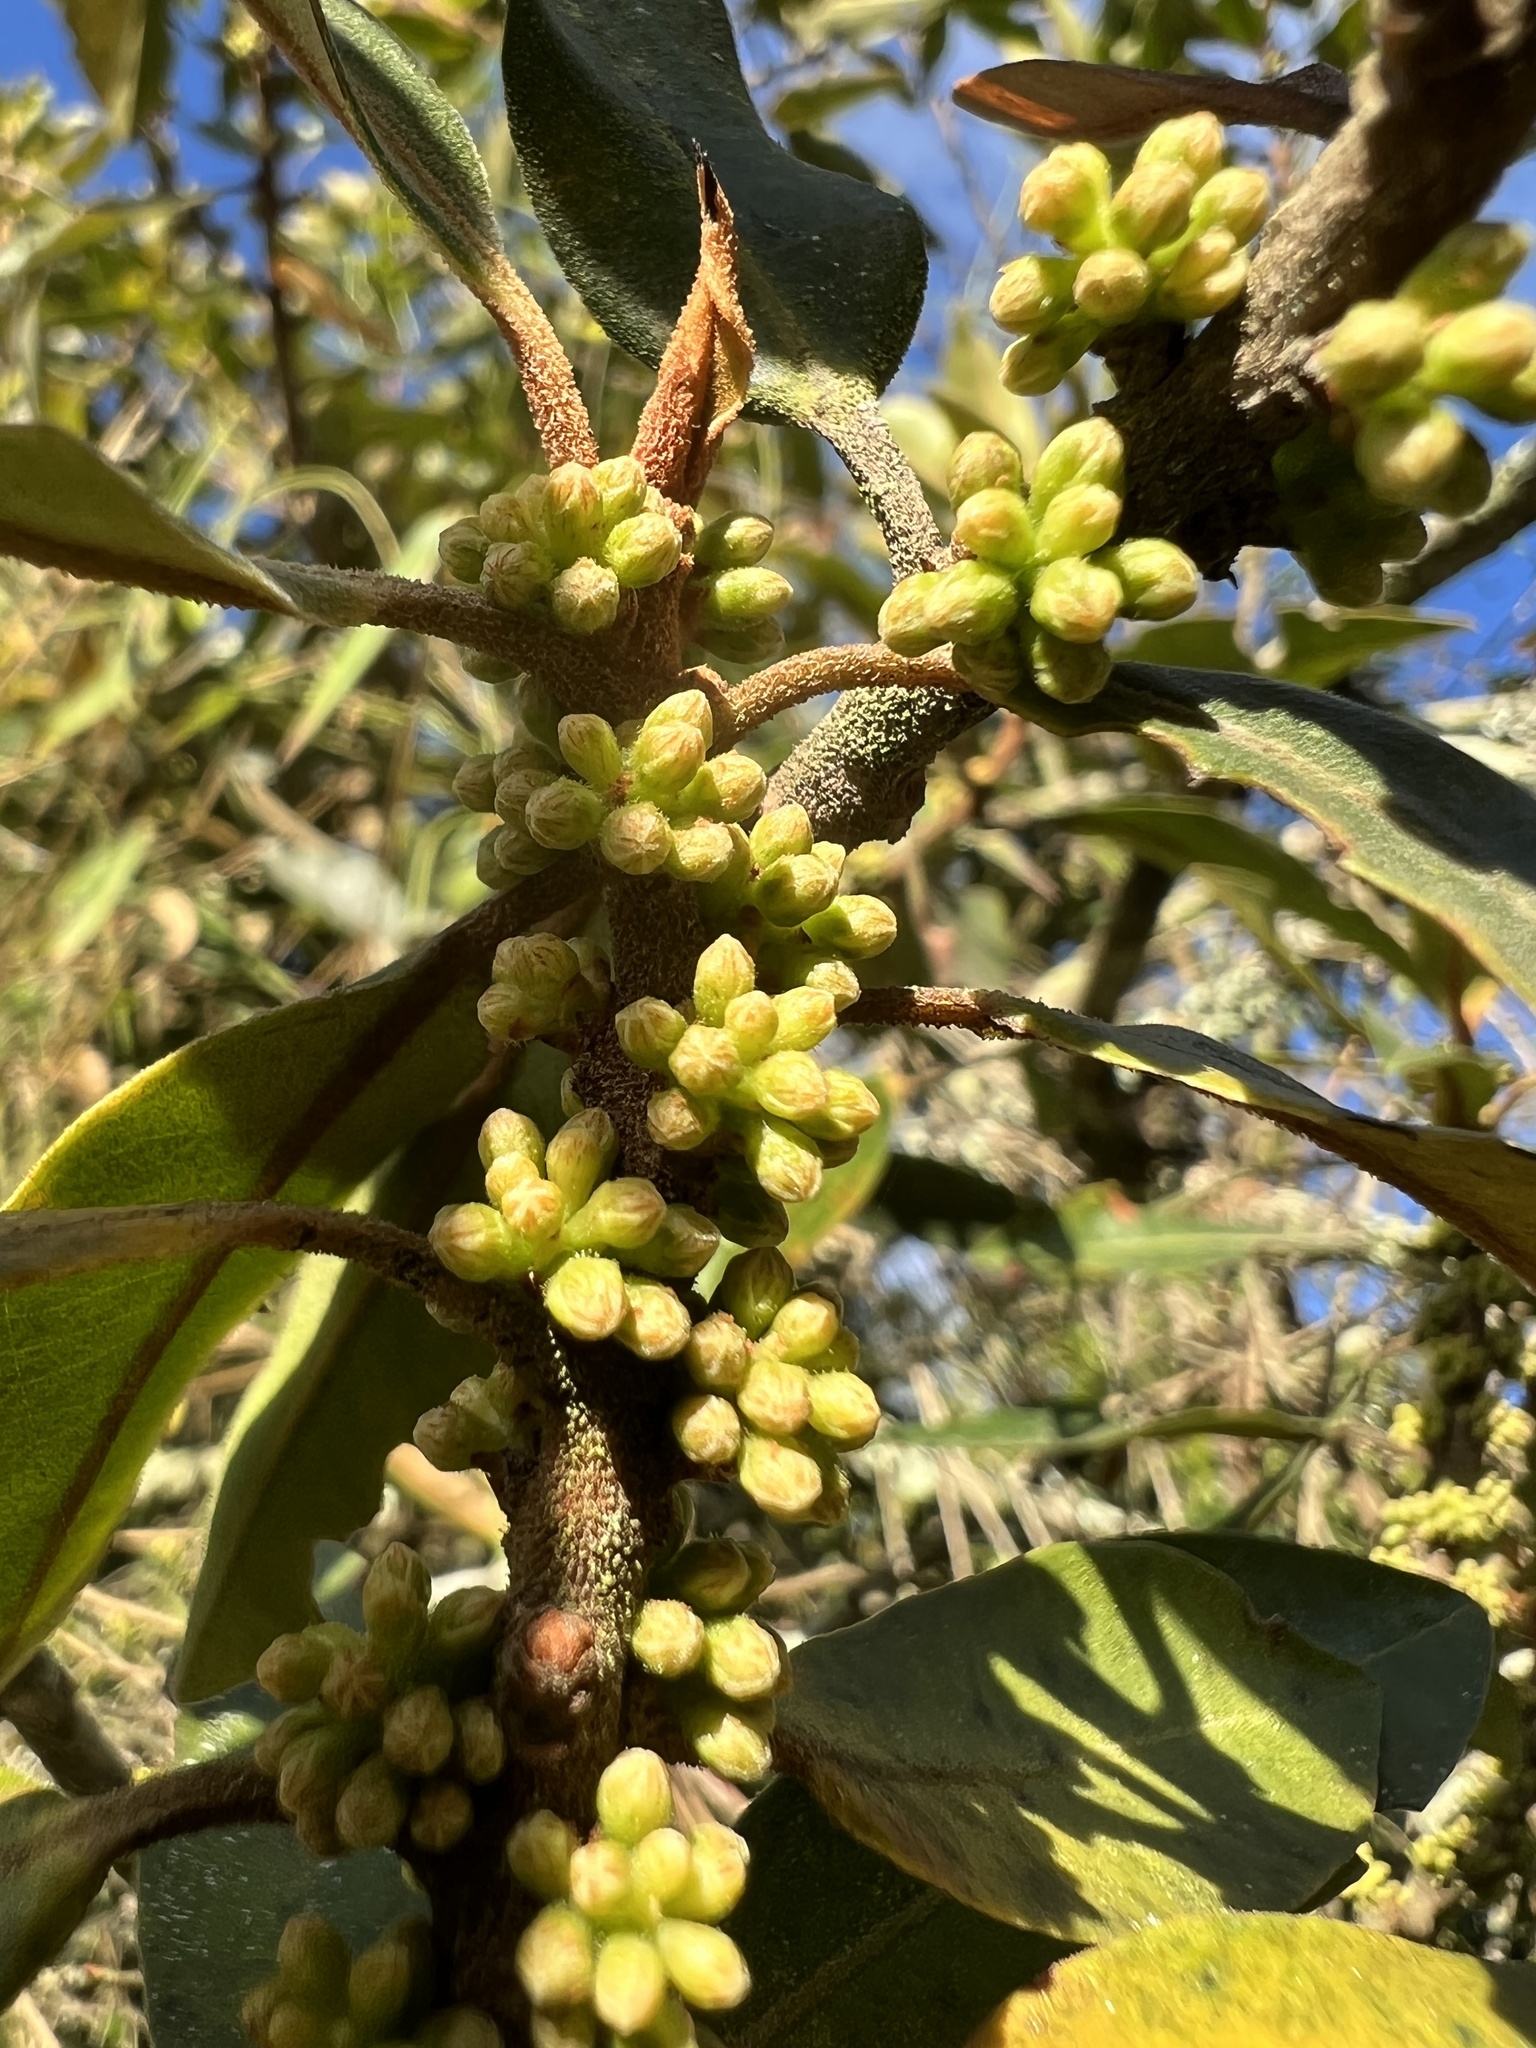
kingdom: Plantae
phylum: Tracheophyta
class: Magnoliopsida
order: Ericales
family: Primulaceae
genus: Myrsine
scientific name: Myrsine coriacea
